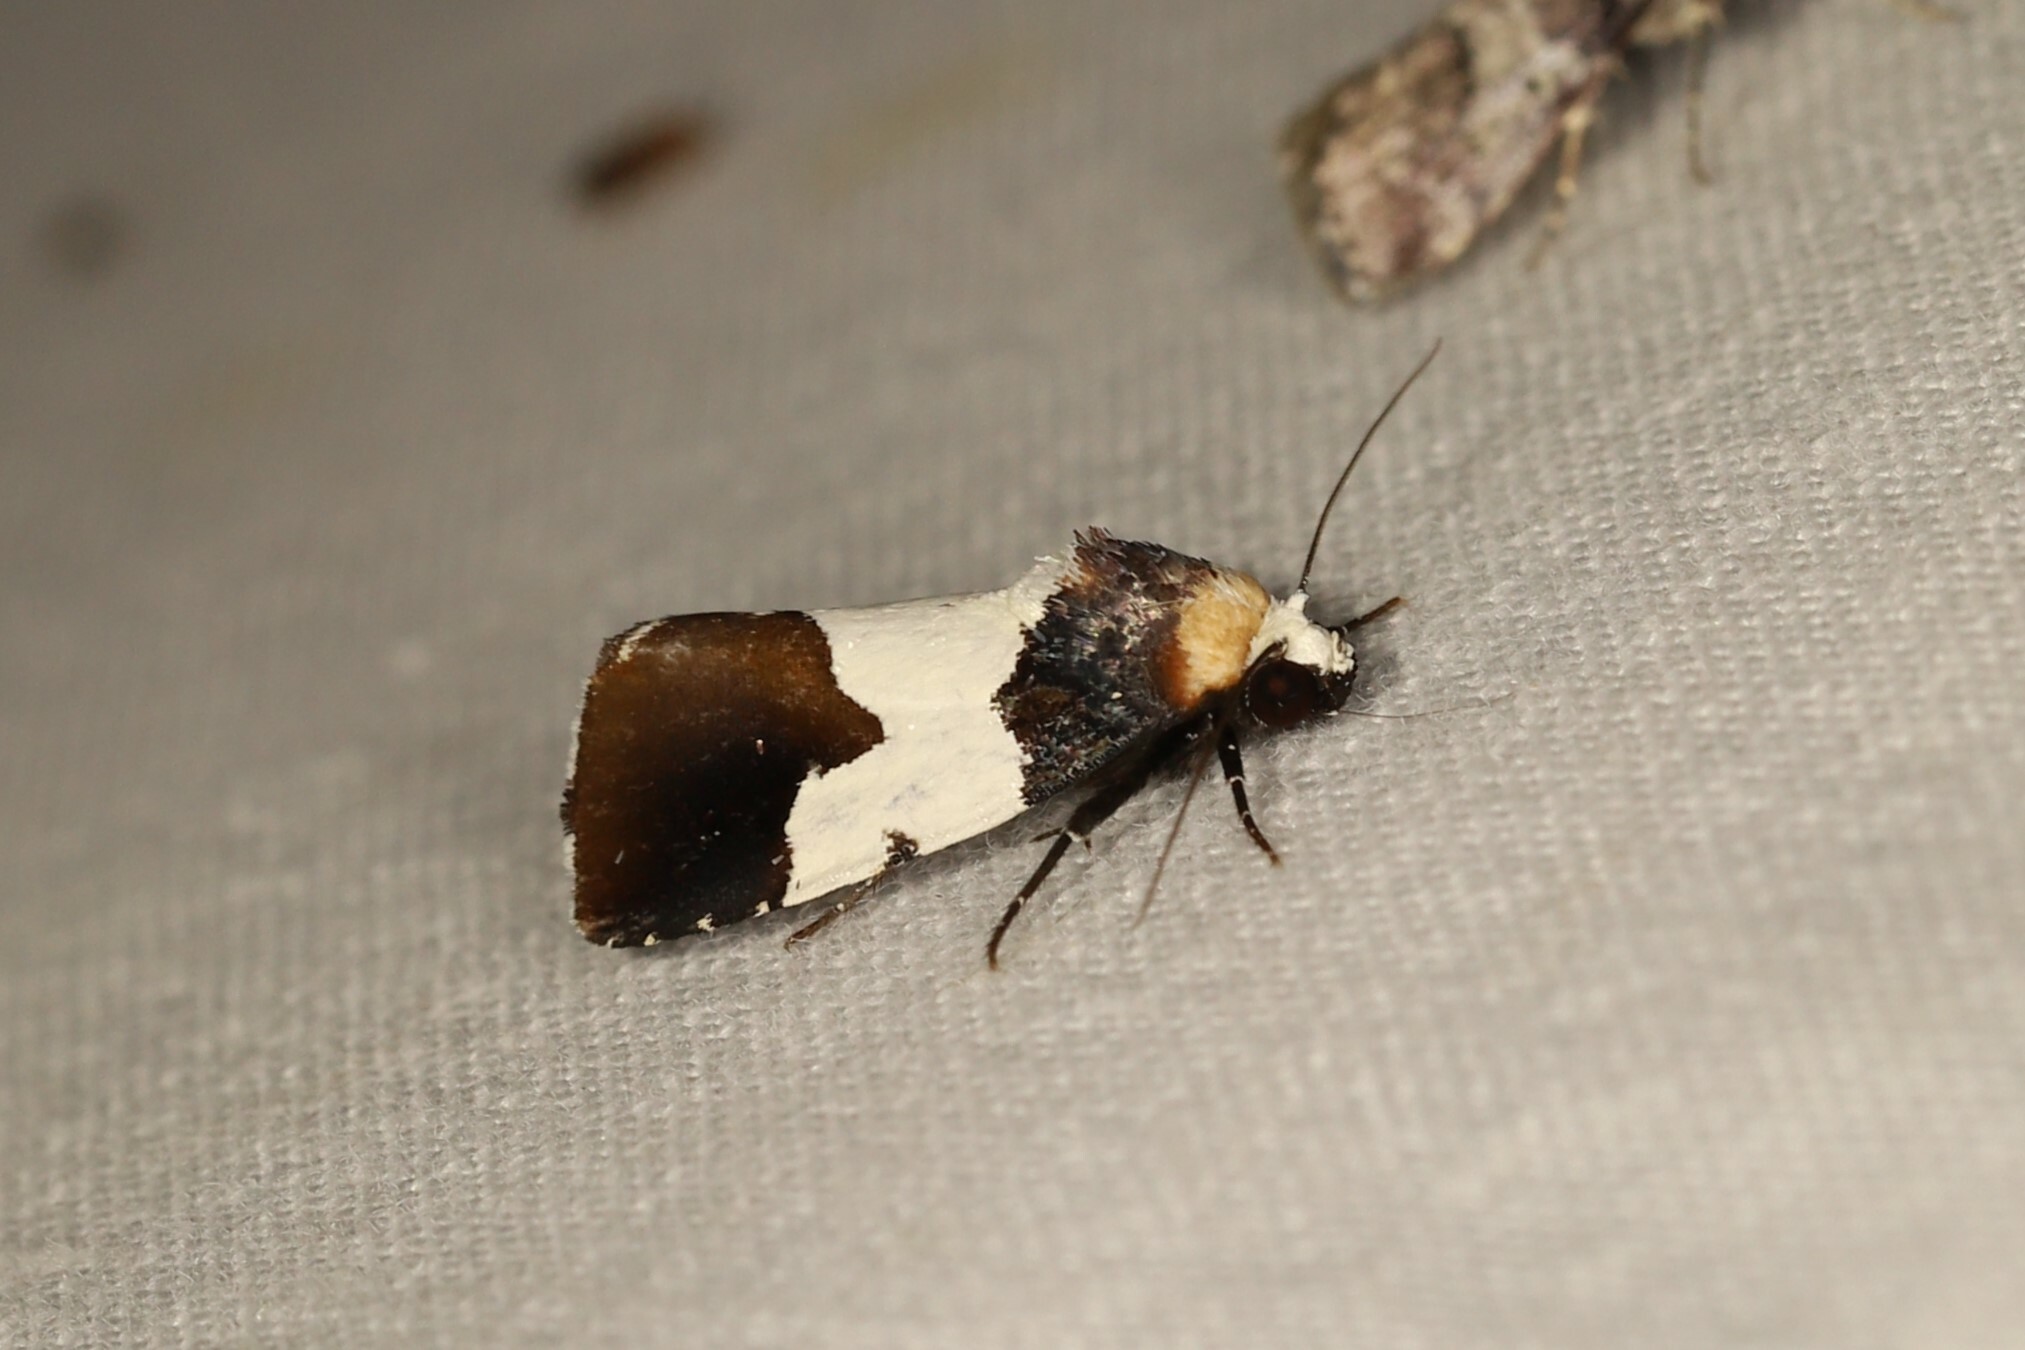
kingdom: Animalia
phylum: Arthropoda
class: Insecta
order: Lepidoptera
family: Noctuidae
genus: Bryolymnia
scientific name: Bryolymnia marginata
